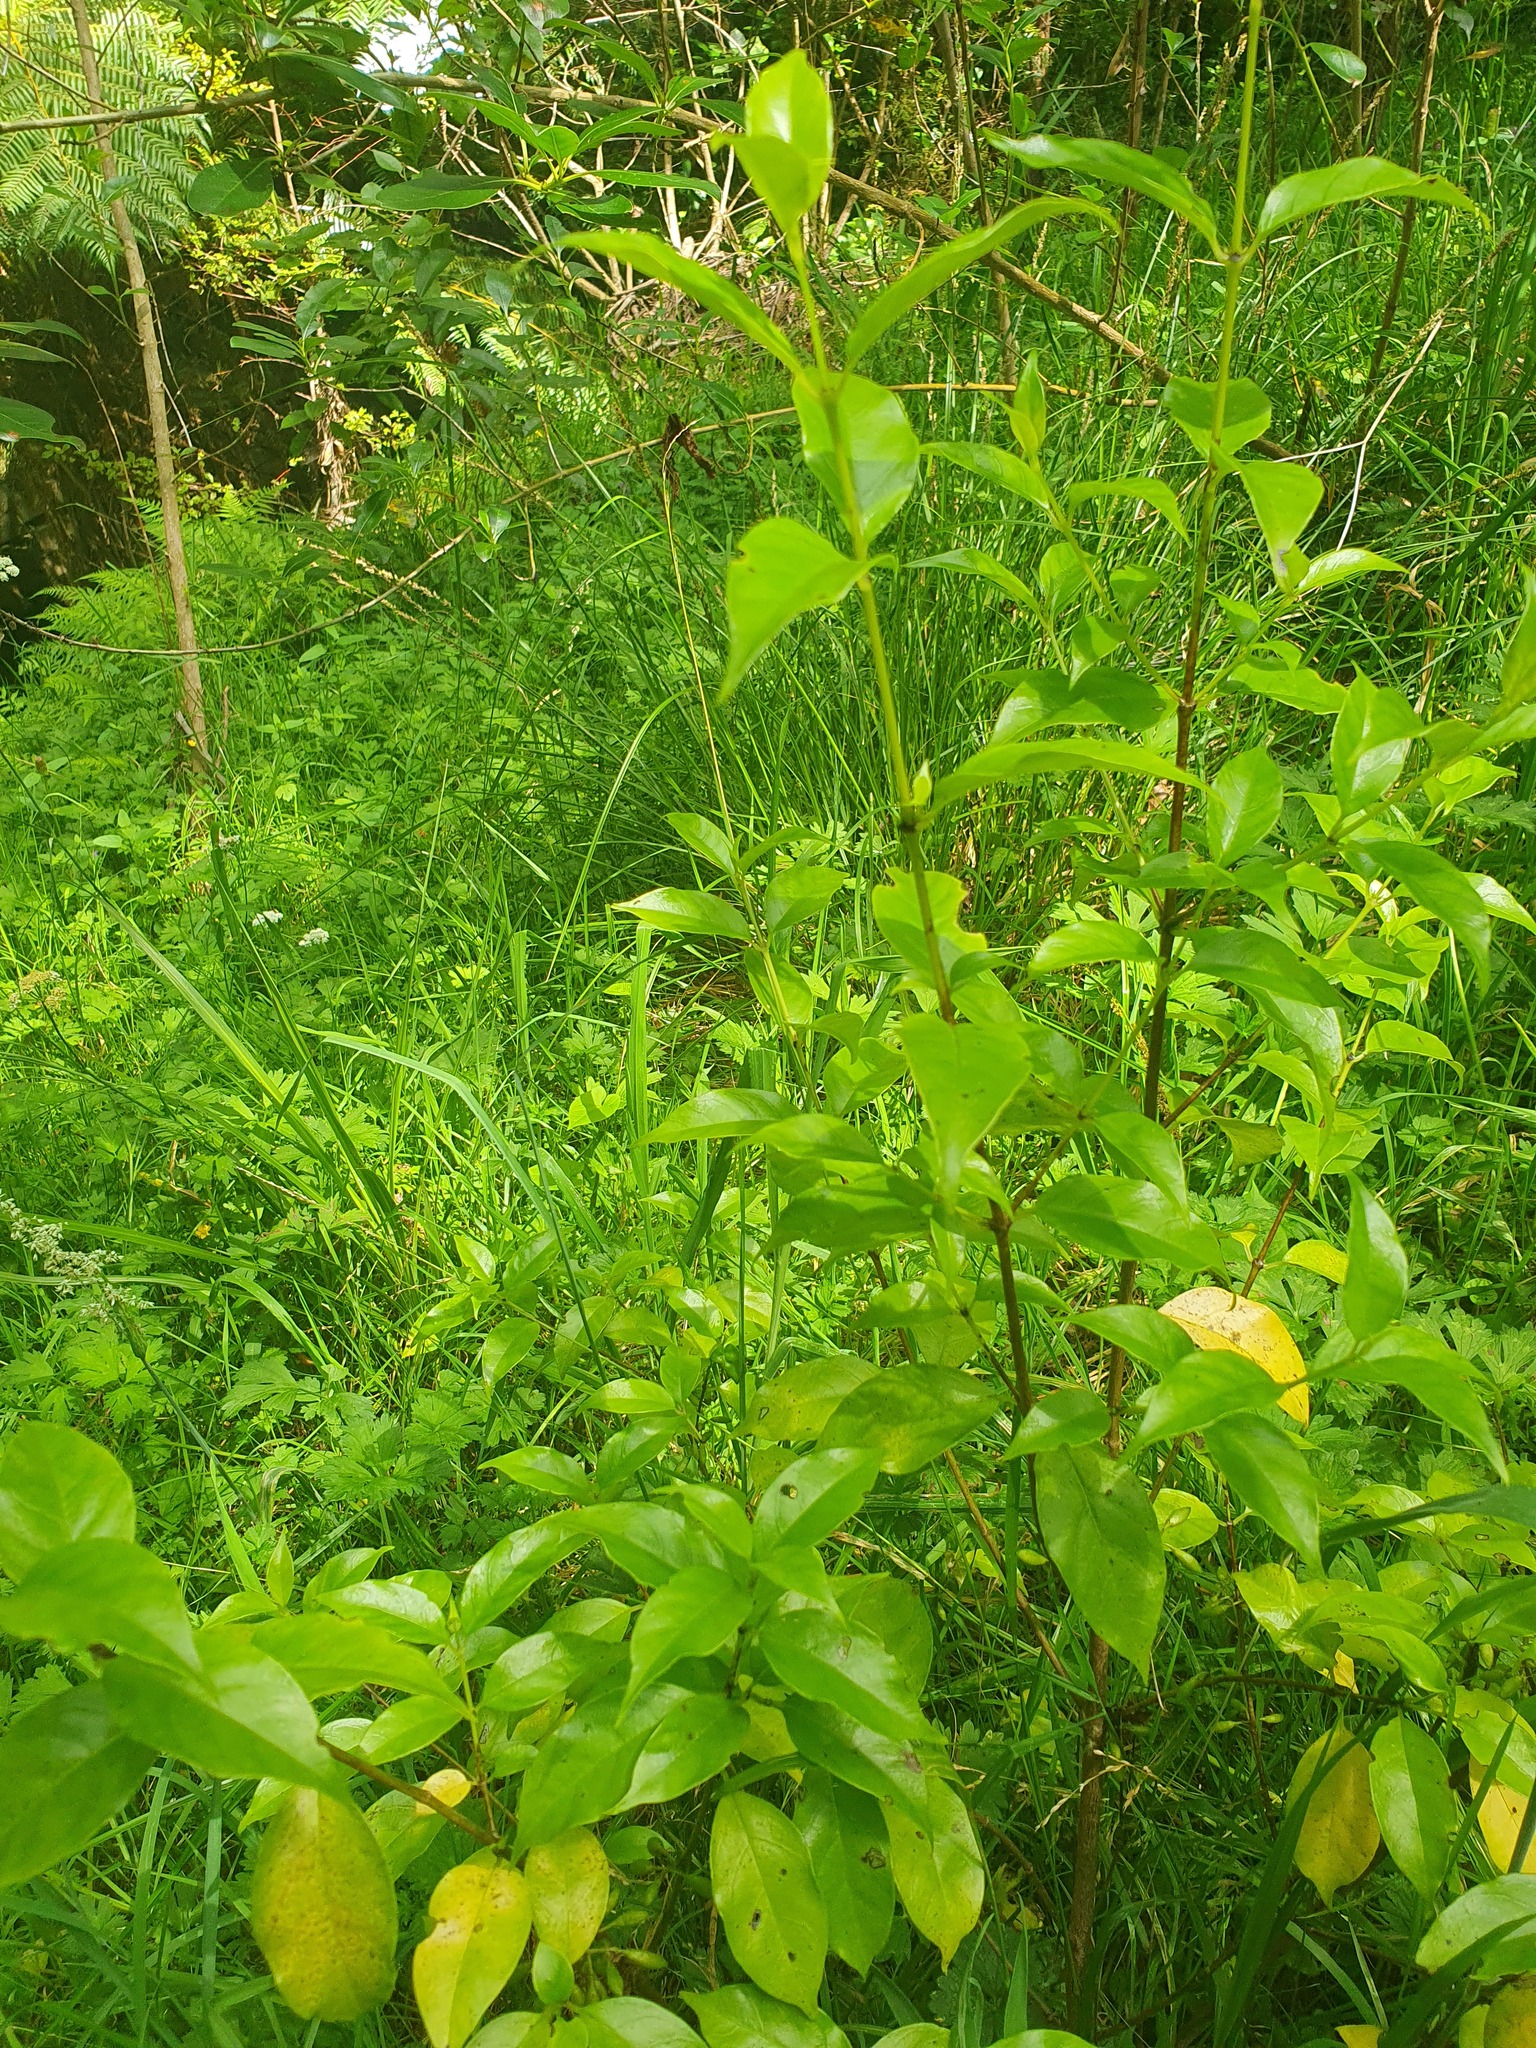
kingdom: Plantae
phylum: Tracheophyta
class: Magnoliopsida
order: Gentianales
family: Loganiaceae
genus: Geniostoma
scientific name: Geniostoma ligustrifolium
